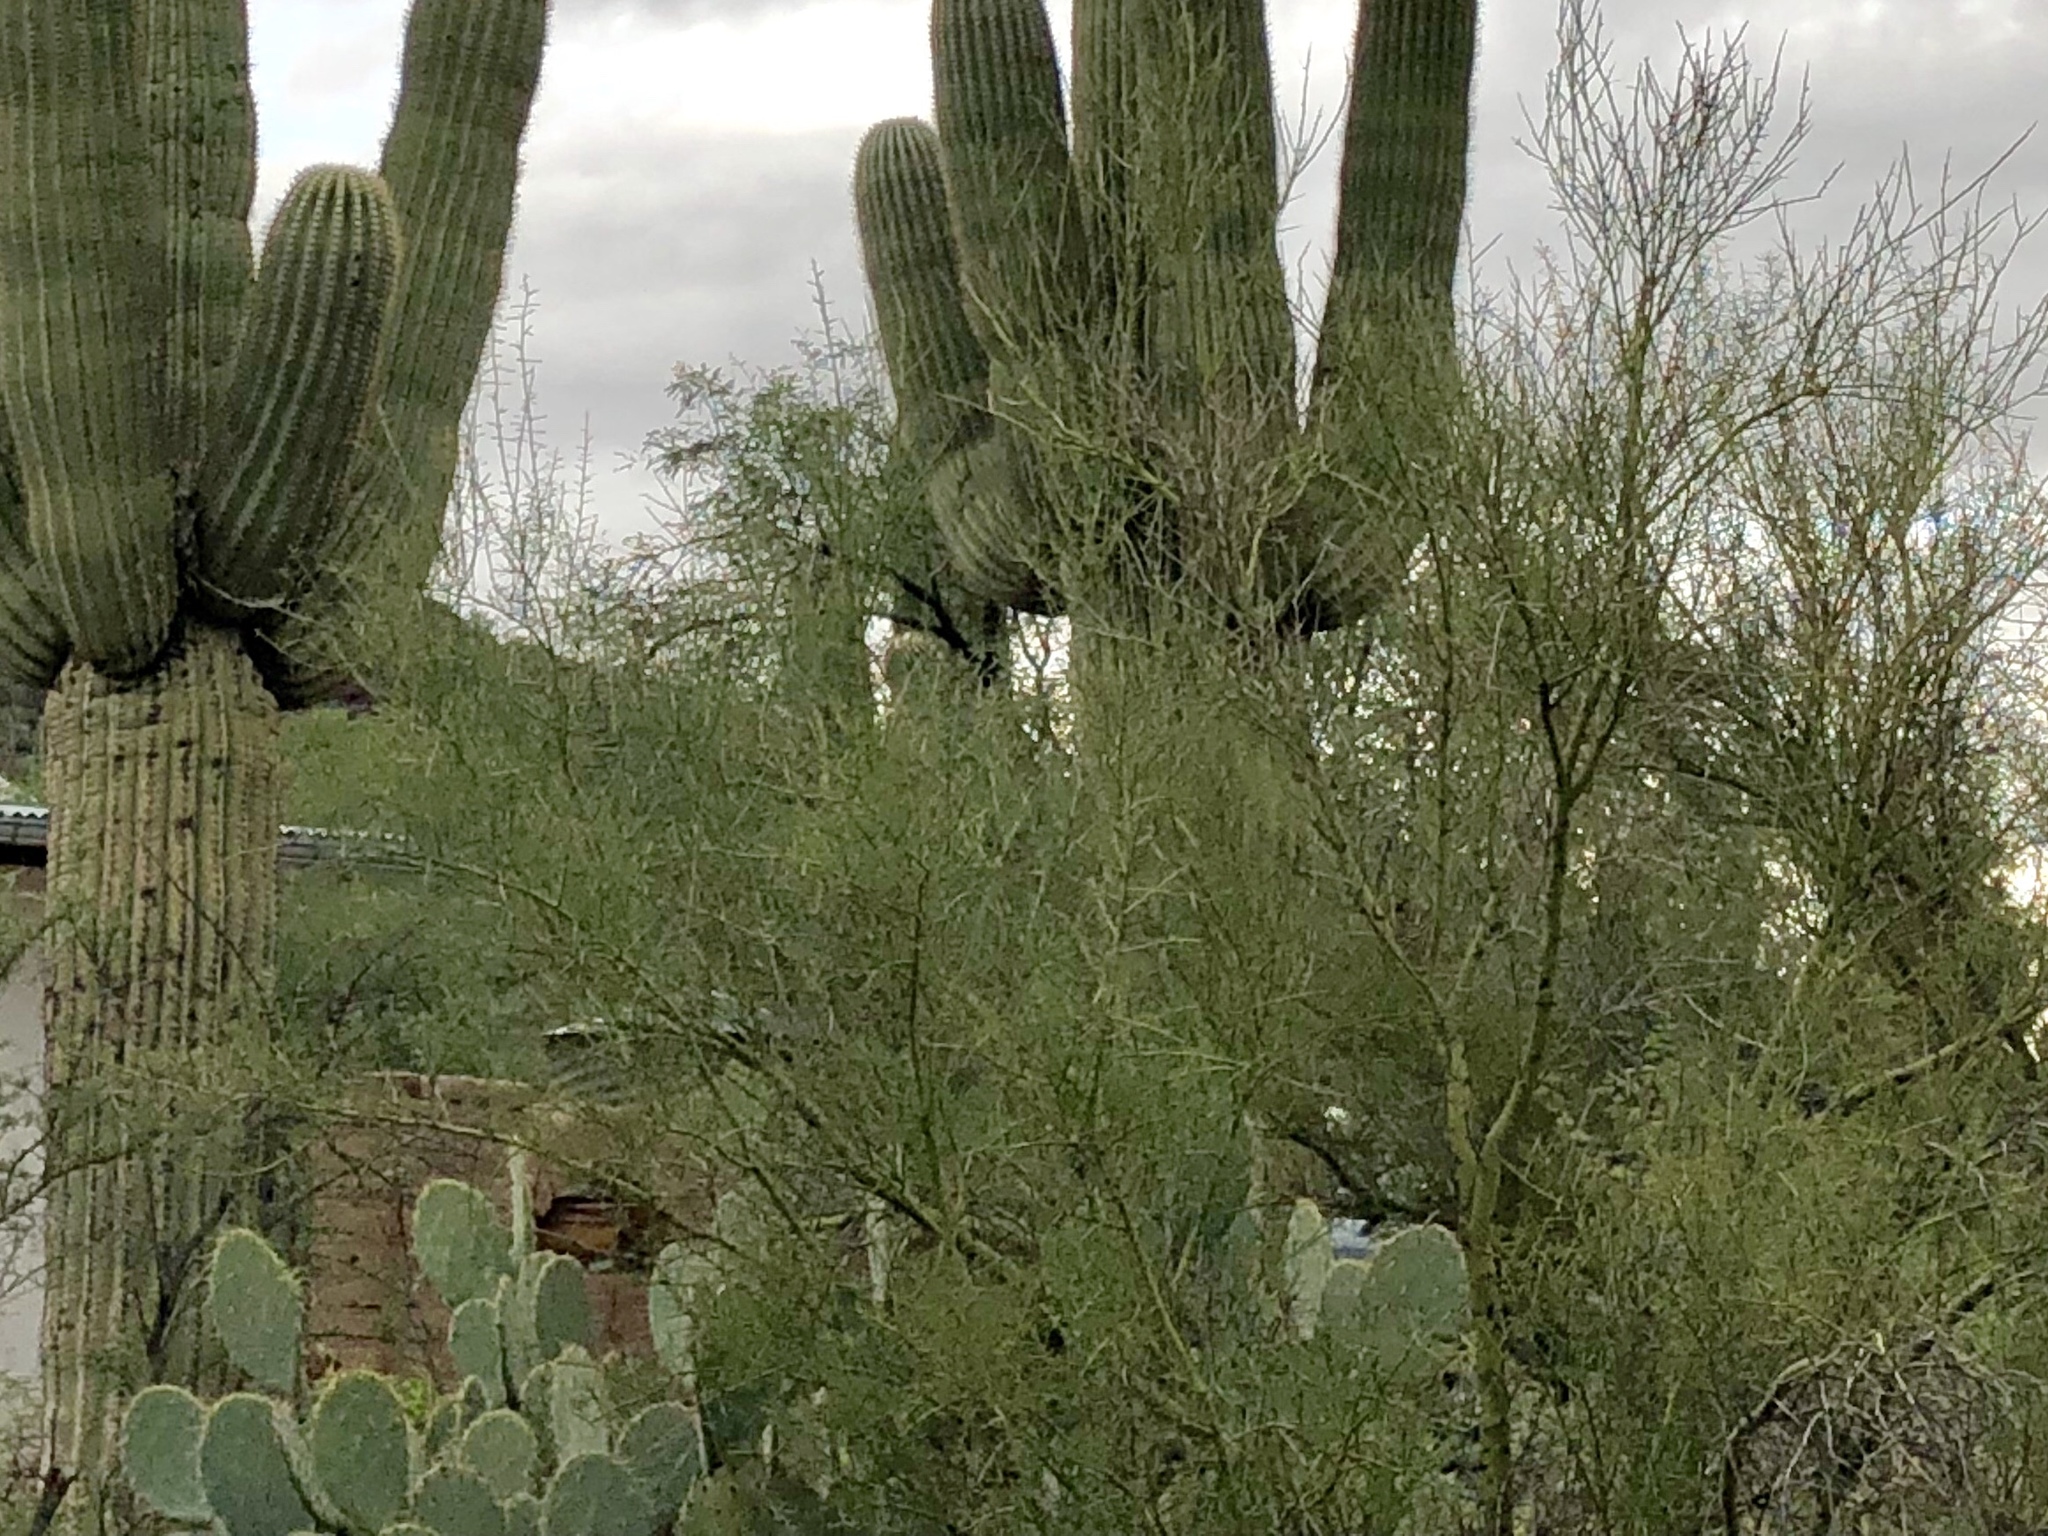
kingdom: Plantae
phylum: Tracheophyta
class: Magnoliopsida
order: Fabales
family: Fabaceae
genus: Parkinsonia
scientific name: Parkinsonia microphylla
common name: Yellow paloverde
